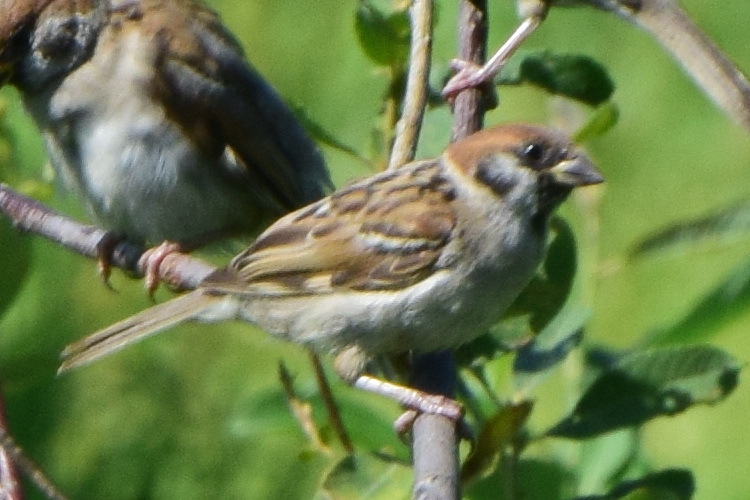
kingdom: Animalia
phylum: Chordata
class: Aves
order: Passeriformes
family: Passeridae
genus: Passer
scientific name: Passer montanus
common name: Eurasian tree sparrow
